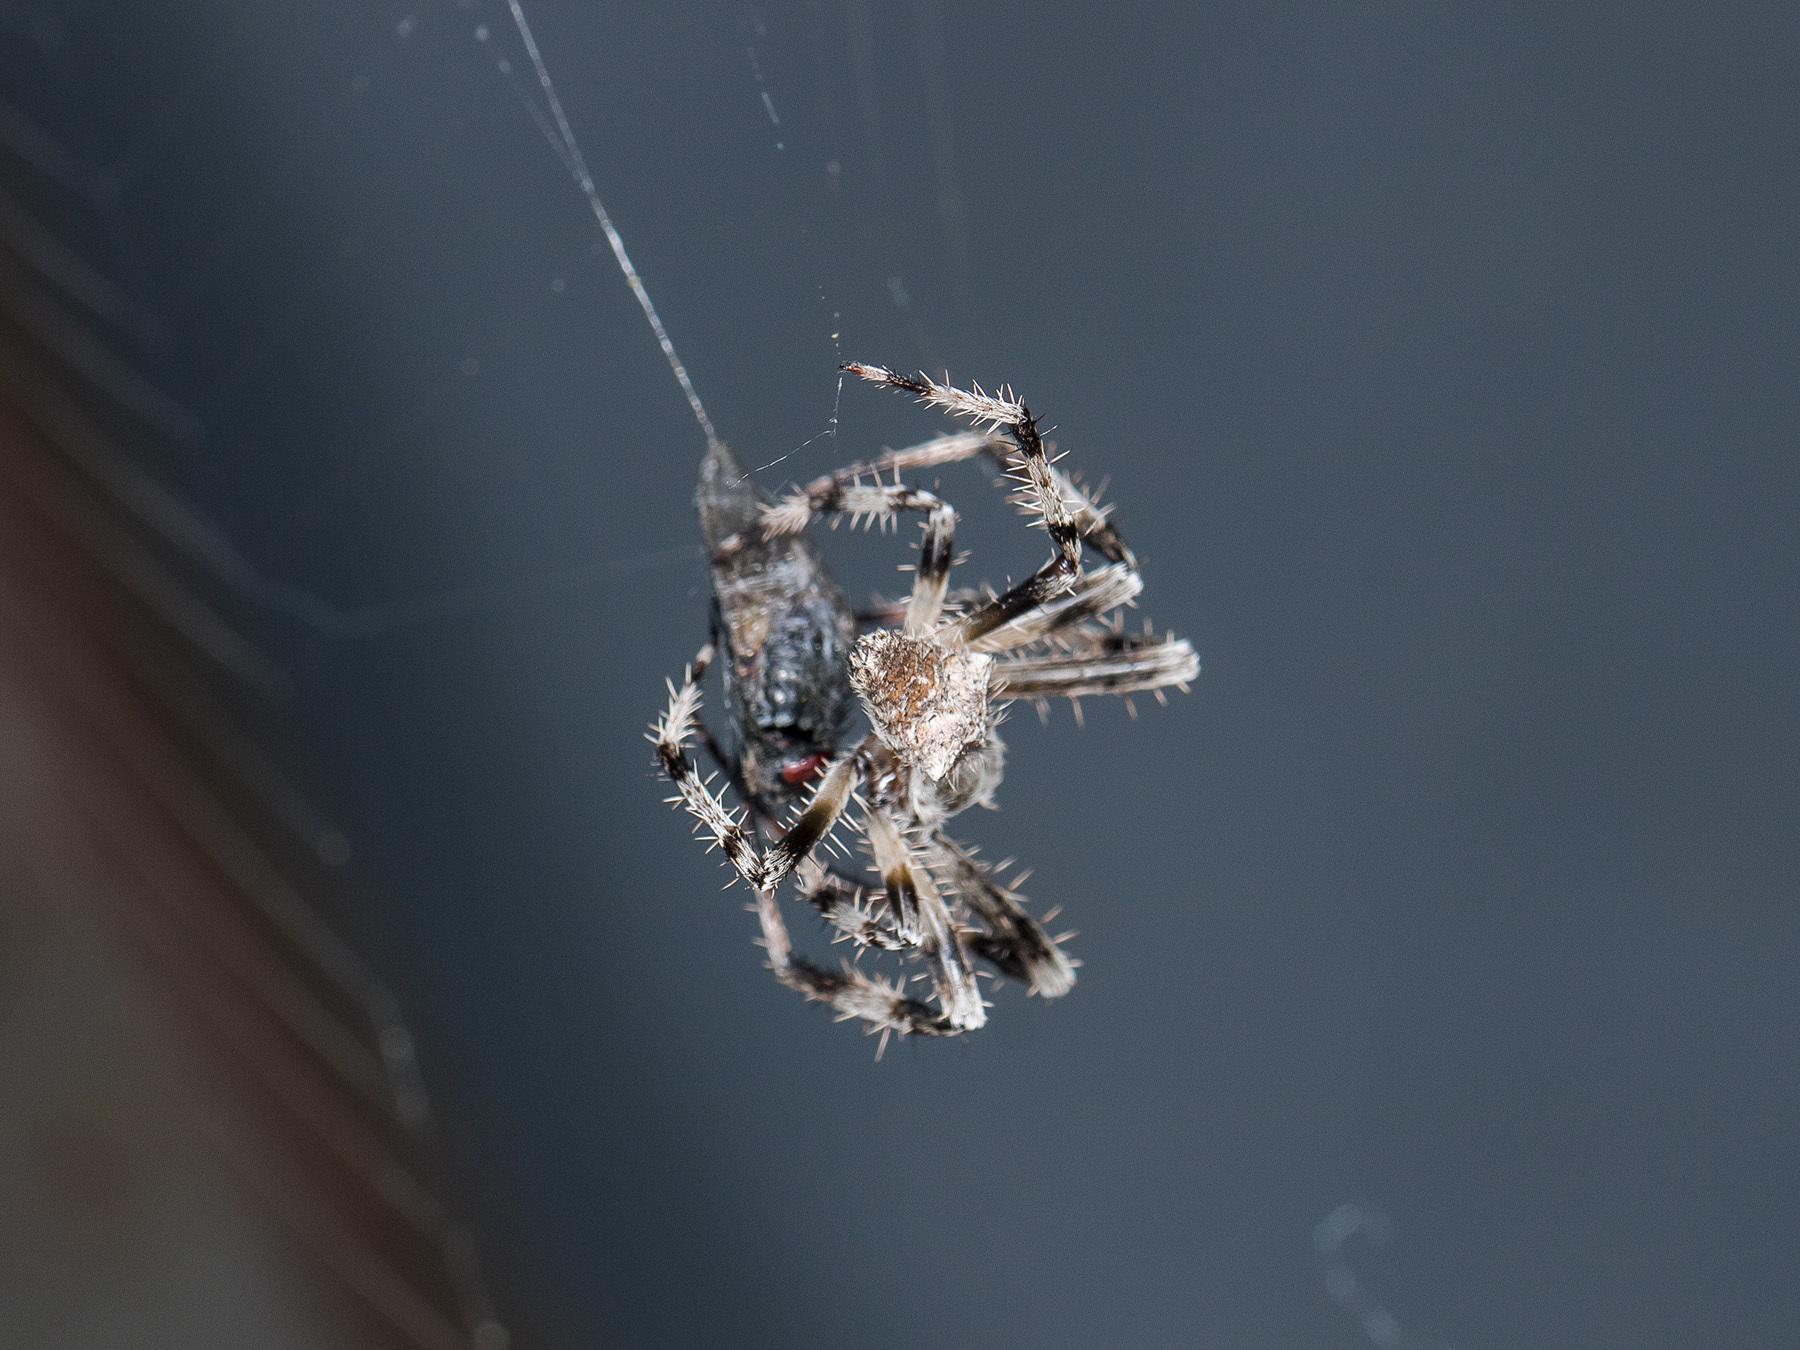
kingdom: Animalia
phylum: Arthropoda
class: Arachnida
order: Araneae
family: Araneidae
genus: Araneus
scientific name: Araneus tartaricus
